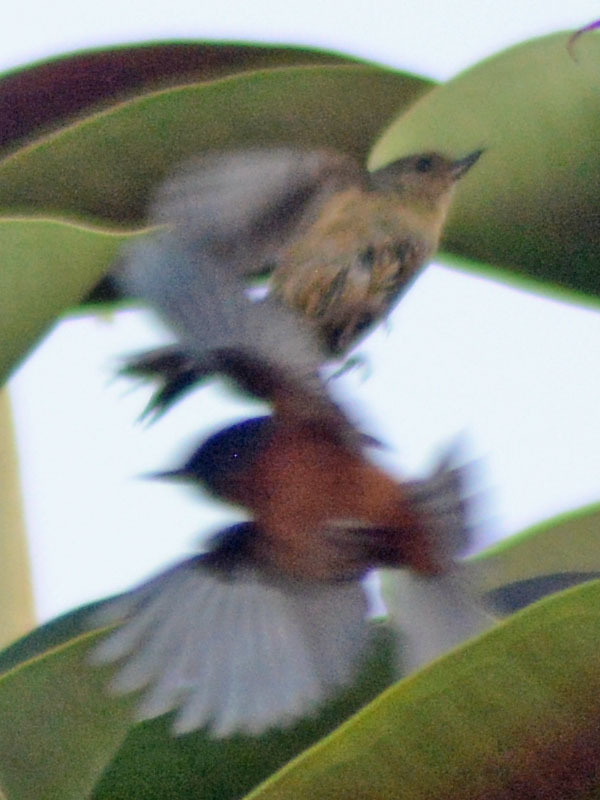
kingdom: Animalia
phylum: Chordata
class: Aves
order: Passeriformes
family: Thraupidae
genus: Diglossa
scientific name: Diglossa baritula
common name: Cinnamon-bellied flowerpiercer
